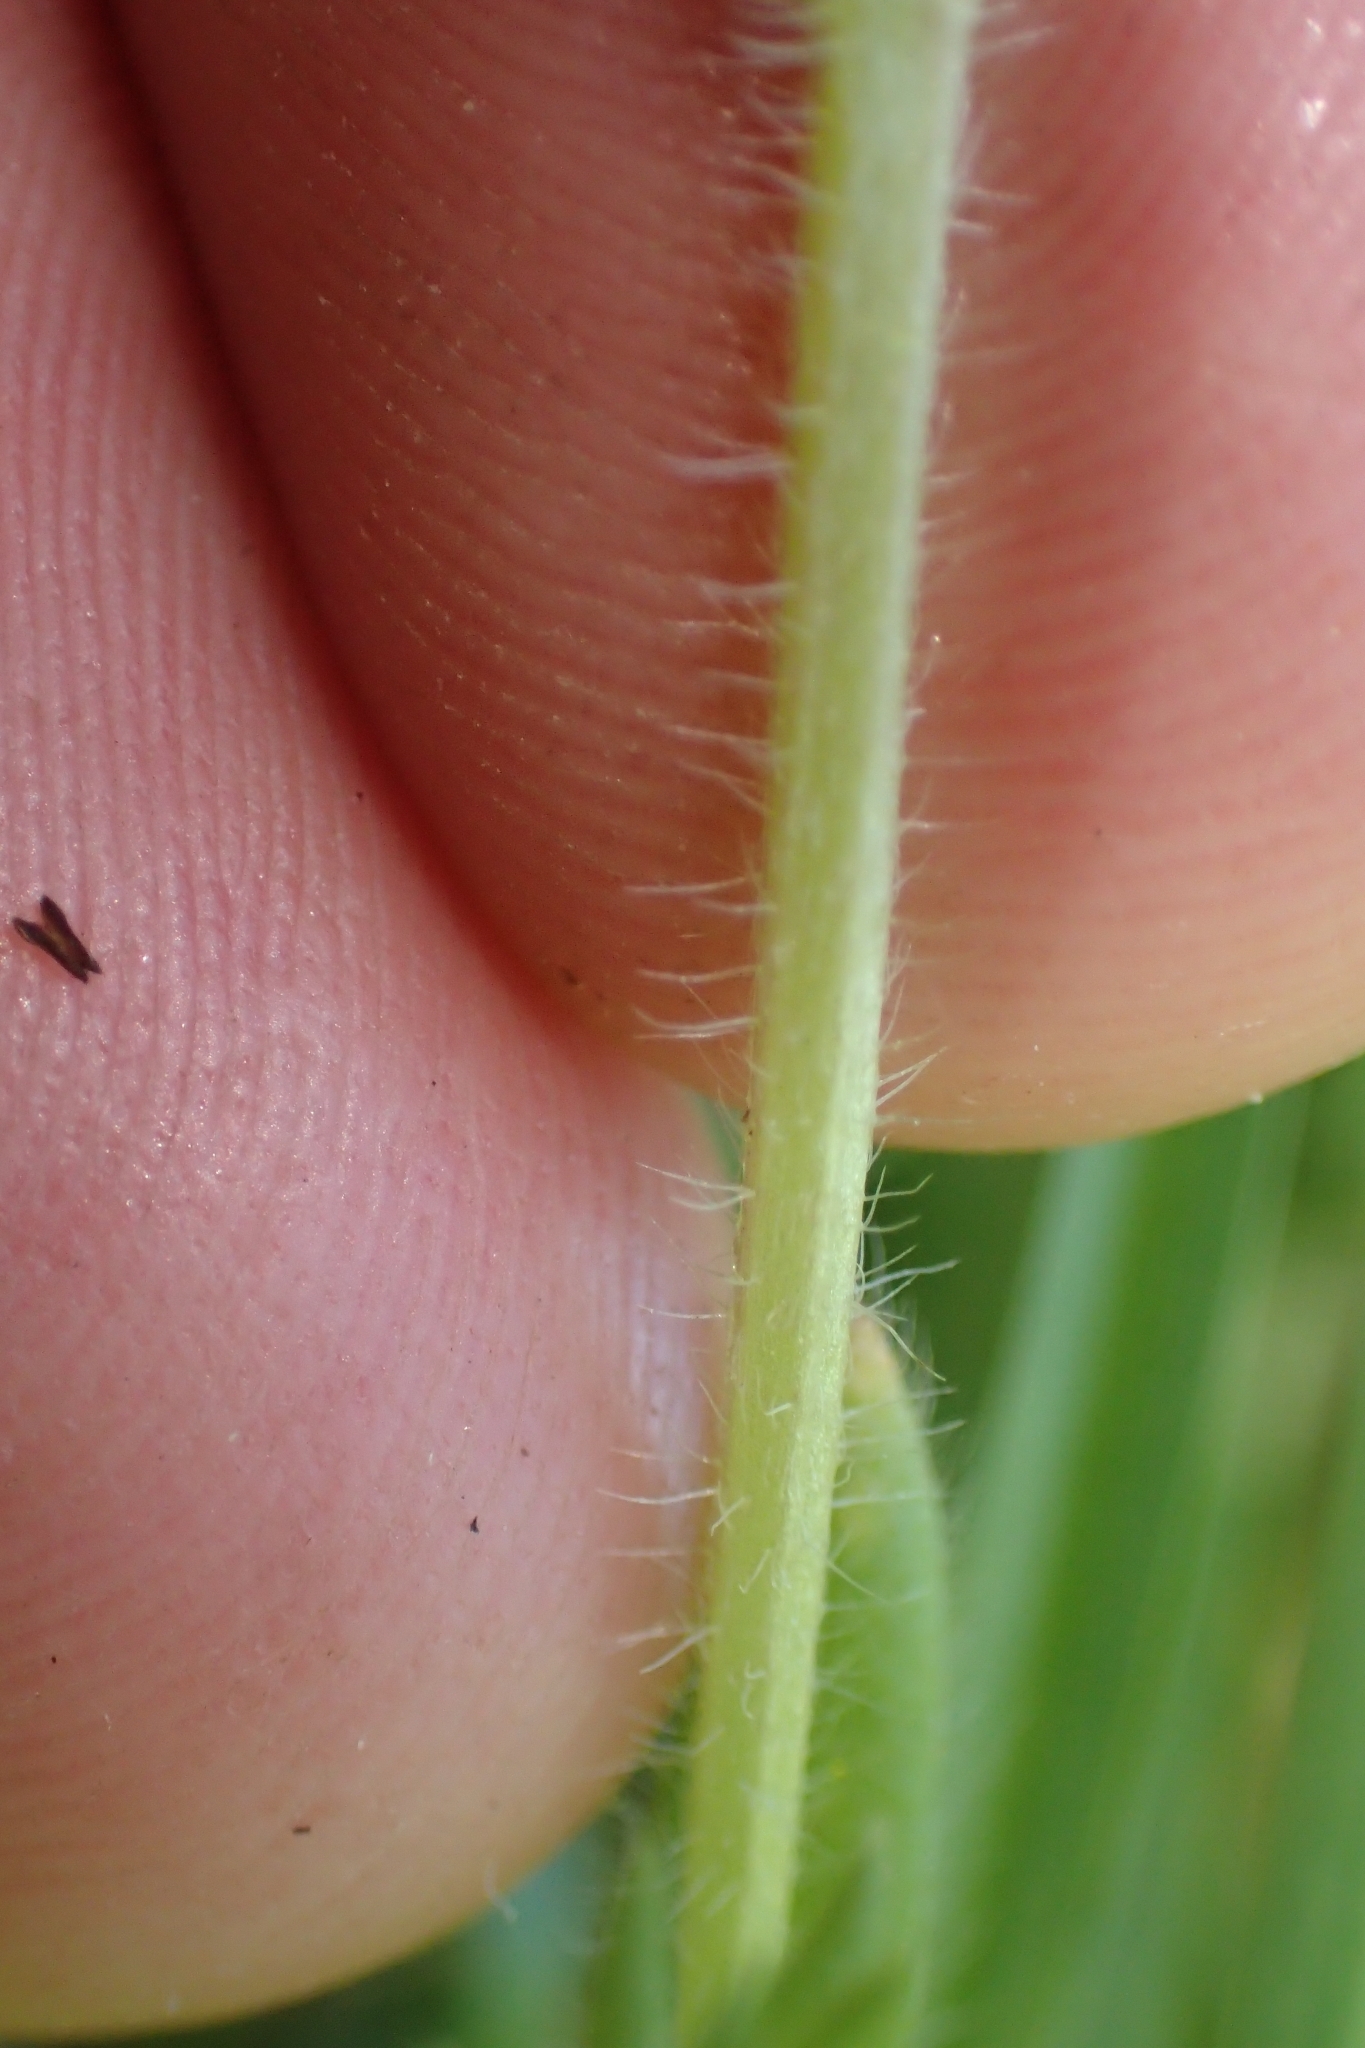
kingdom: Plantae
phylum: Tracheophyta
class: Magnoliopsida
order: Boraginales
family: Boraginaceae
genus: Myosotis
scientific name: Myosotis discolor
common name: Changing forget-me-not
